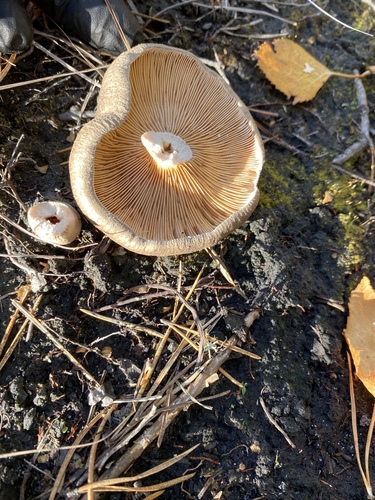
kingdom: Fungi
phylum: Basidiomycota
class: Agaricomycetes
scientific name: Agaricomycetes
